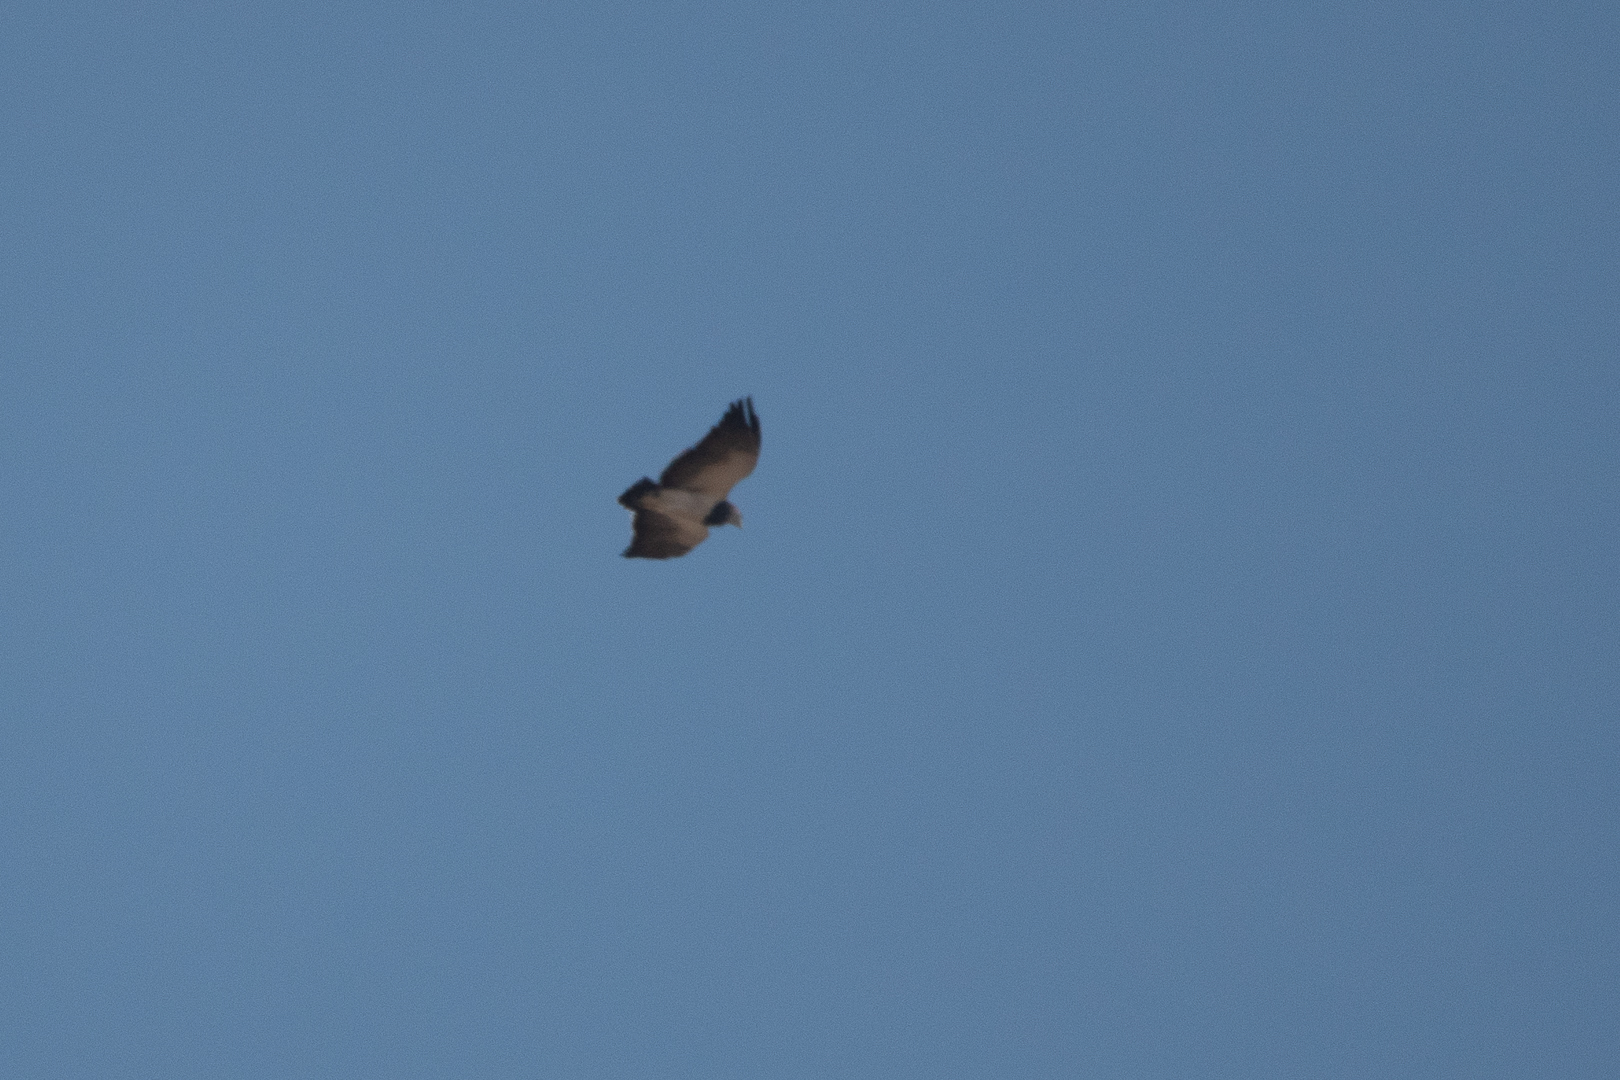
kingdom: Animalia
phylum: Chordata
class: Aves
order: Accipitriformes
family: Accipitridae
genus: Geranoaetus
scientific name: Geranoaetus melanoleucus
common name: Black-chested buzzard-eagle
